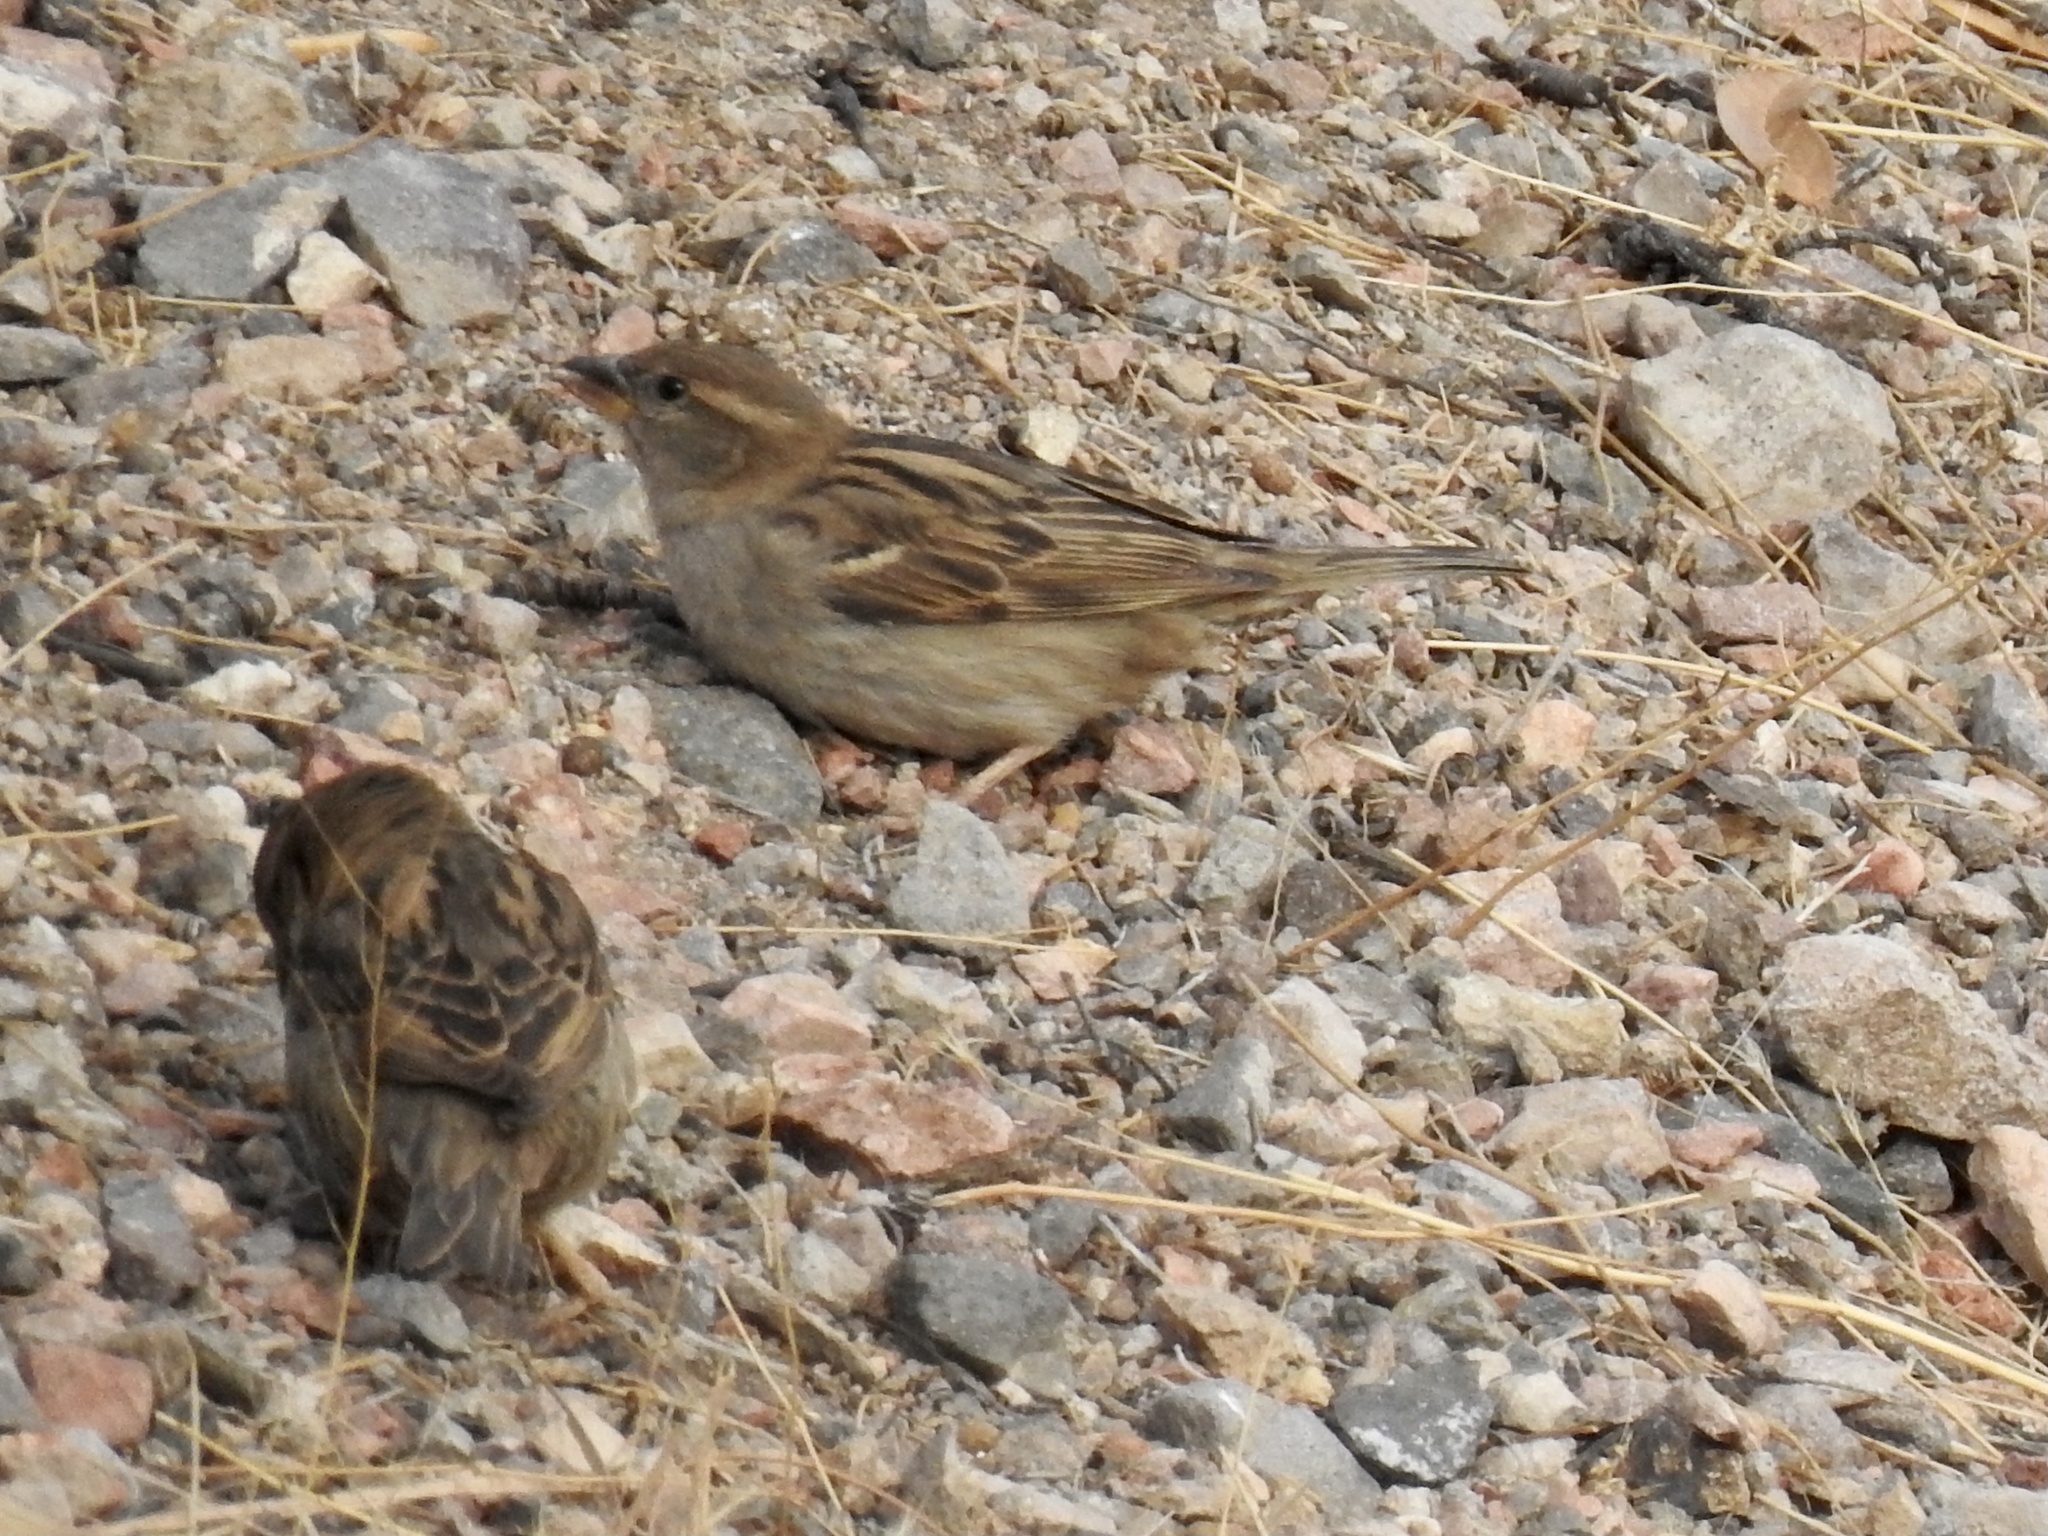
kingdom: Animalia
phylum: Chordata
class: Aves
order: Passeriformes
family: Passeridae
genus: Passer
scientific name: Passer domesticus
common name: House sparrow
